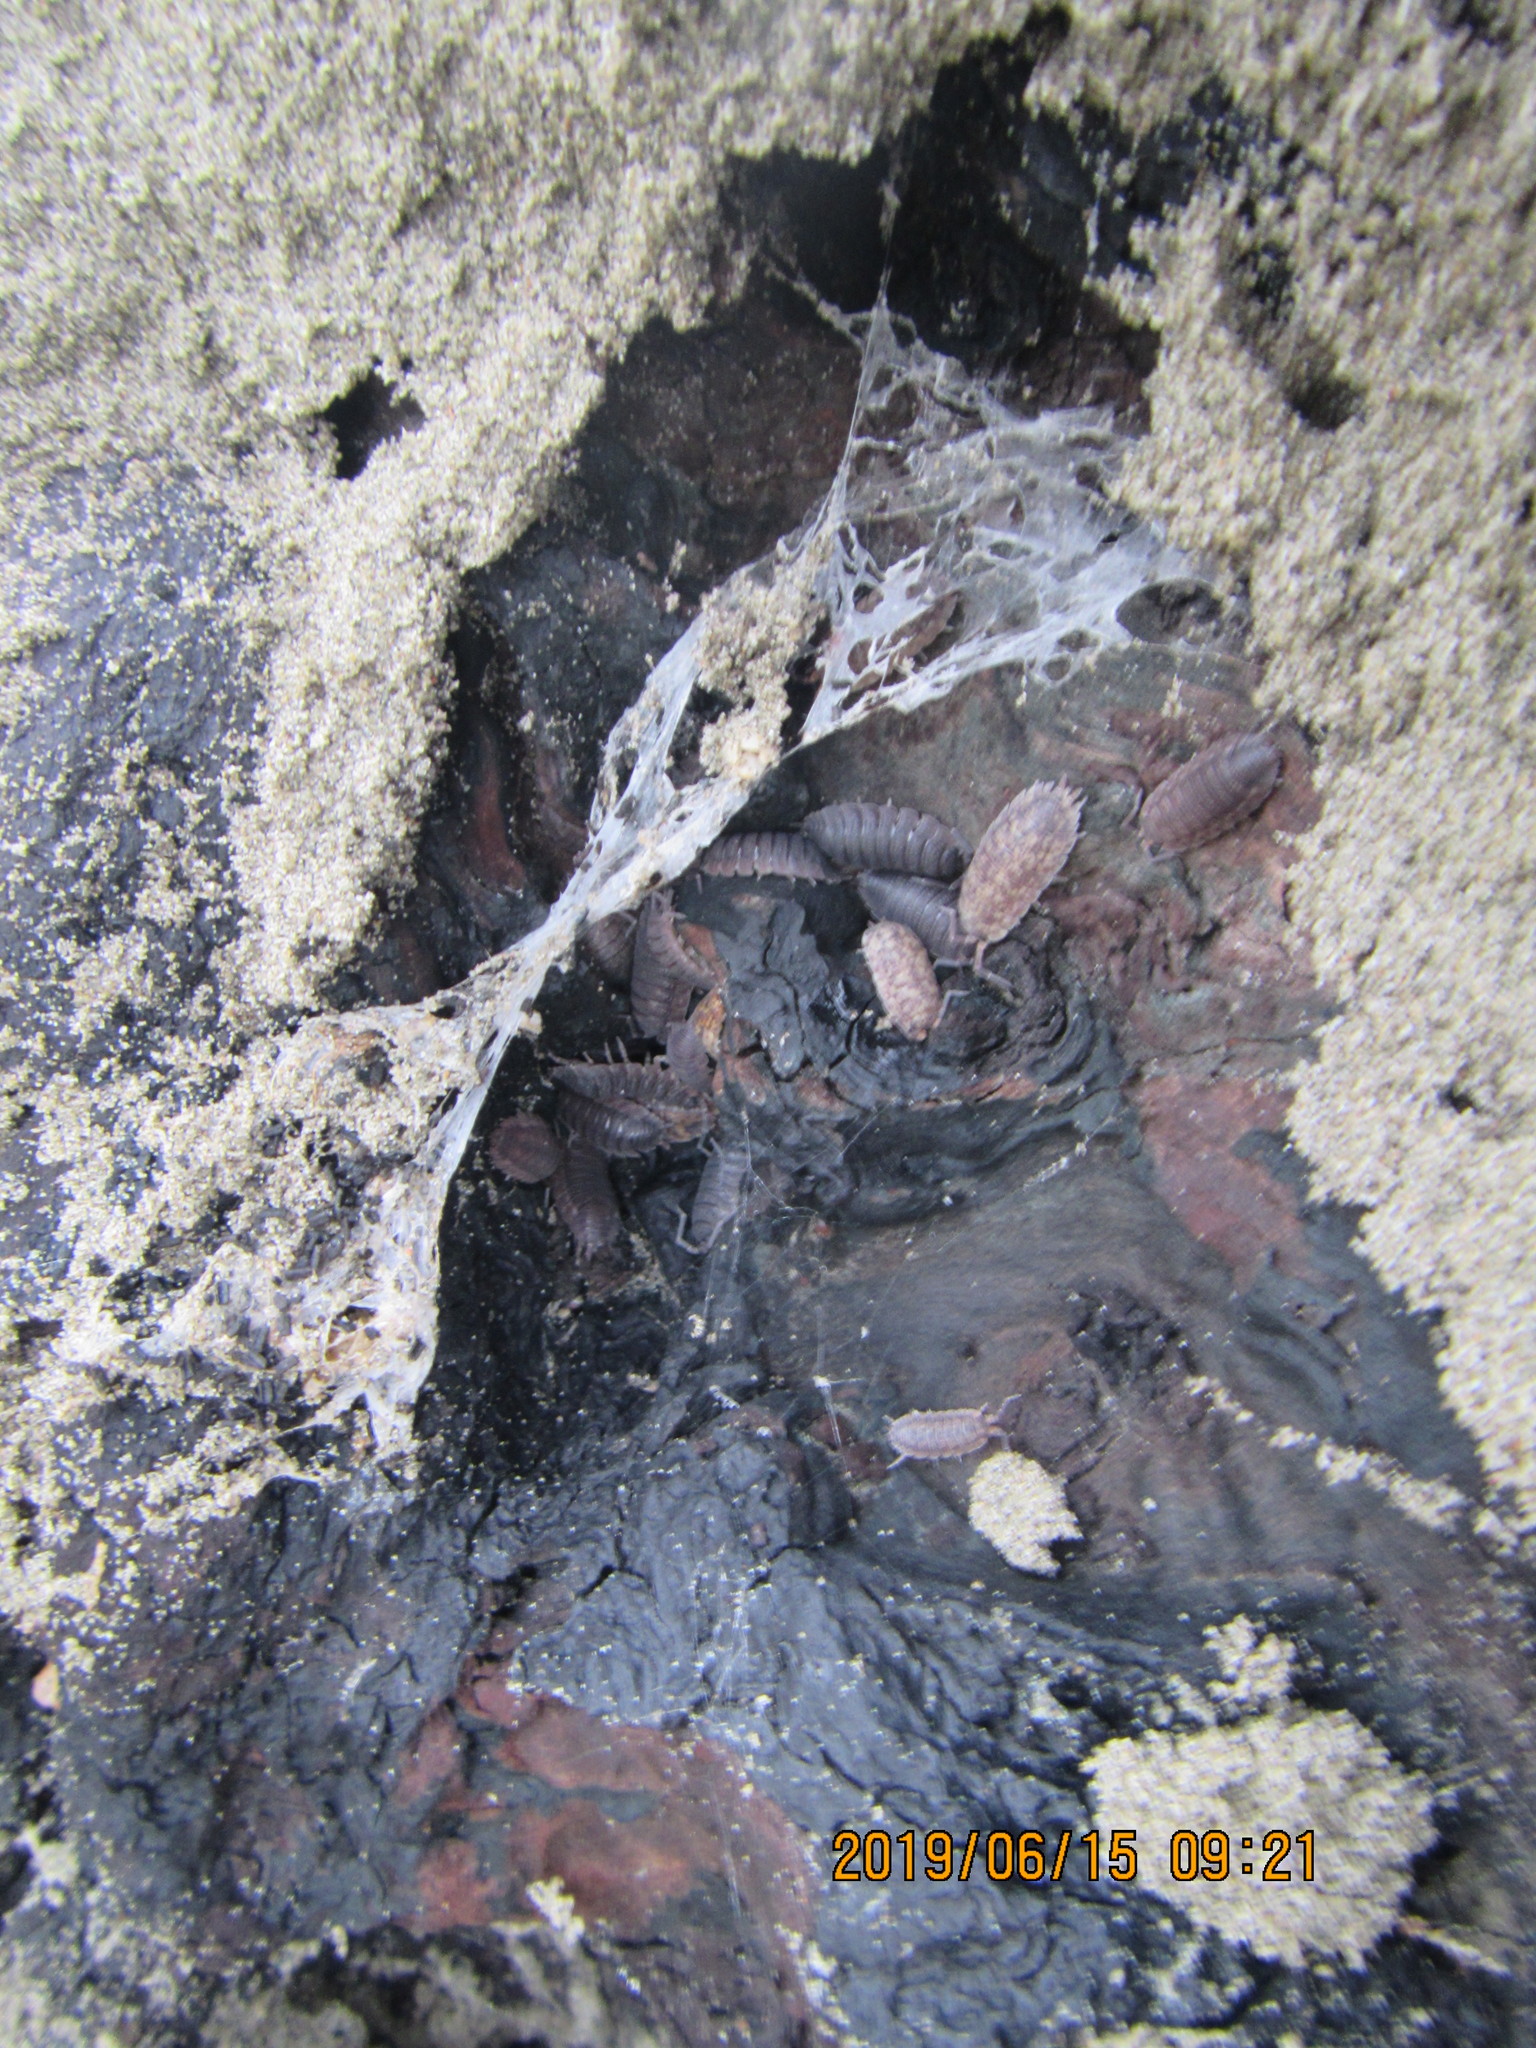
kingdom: Animalia
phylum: Arthropoda
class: Malacostraca
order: Isopoda
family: Porcellionidae
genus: Porcellio
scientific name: Porcellio scaber
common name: Common rough woodlouse
